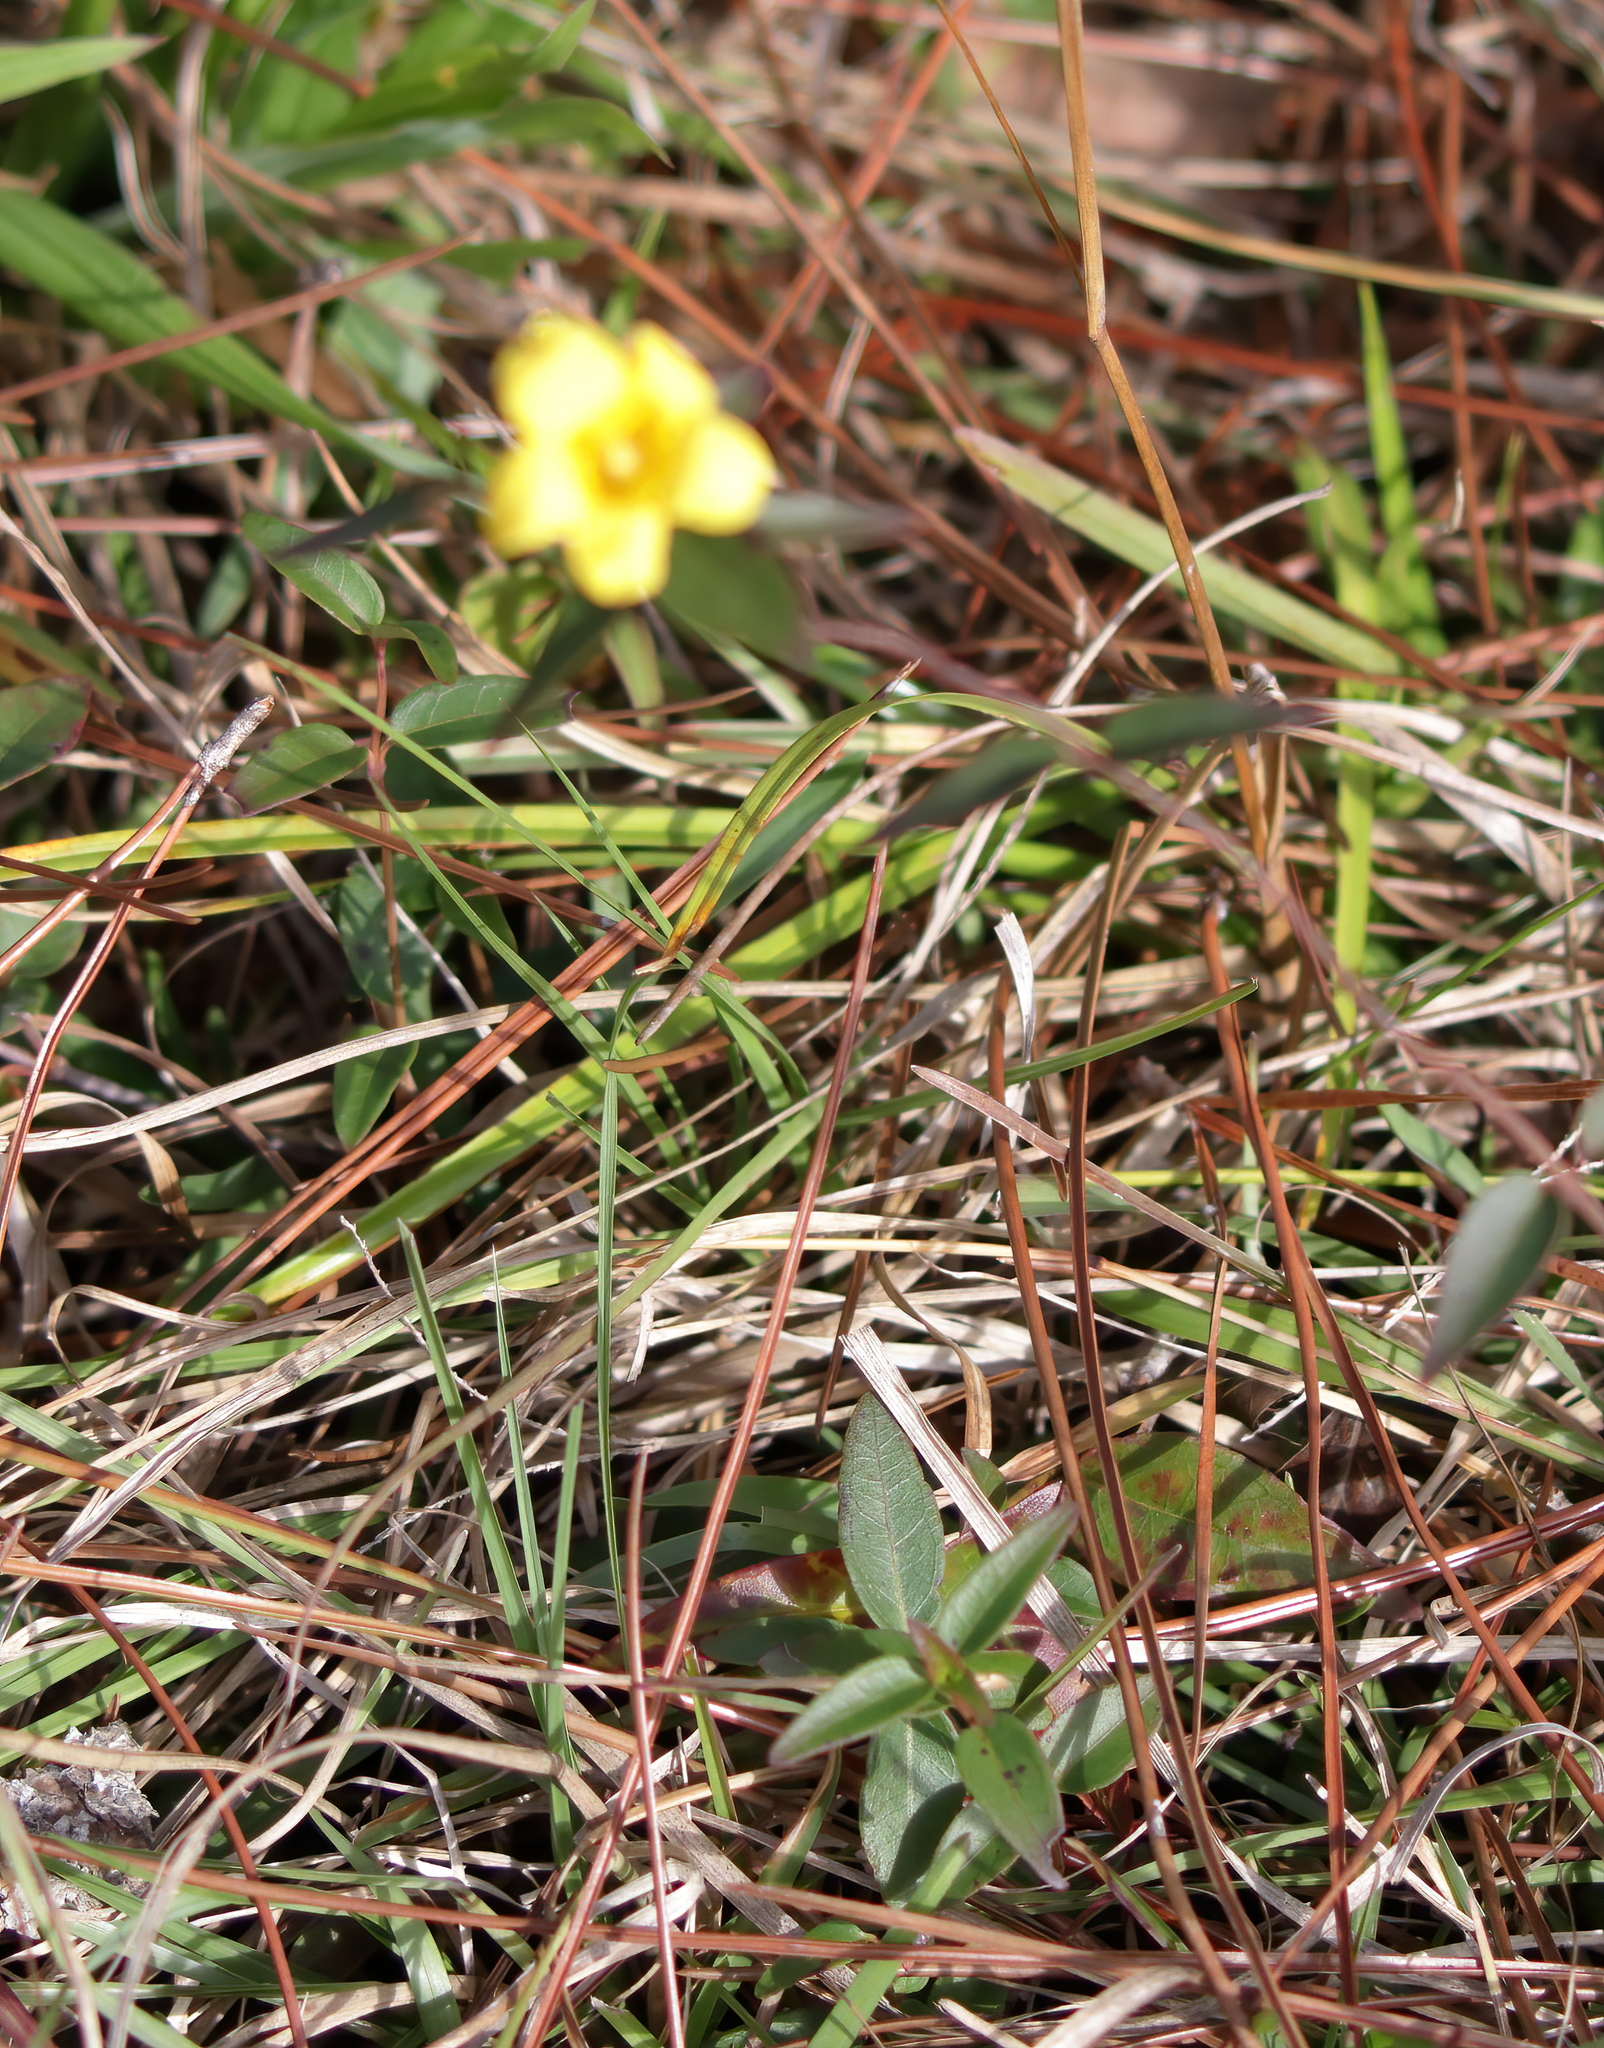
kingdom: Plantae
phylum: Tracheophyta
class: Magnoliopsida
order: Gentianales
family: Gelsemiaceae
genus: Gelsemium
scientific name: Gelsemium sempervirens
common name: Carolina-jasmine
